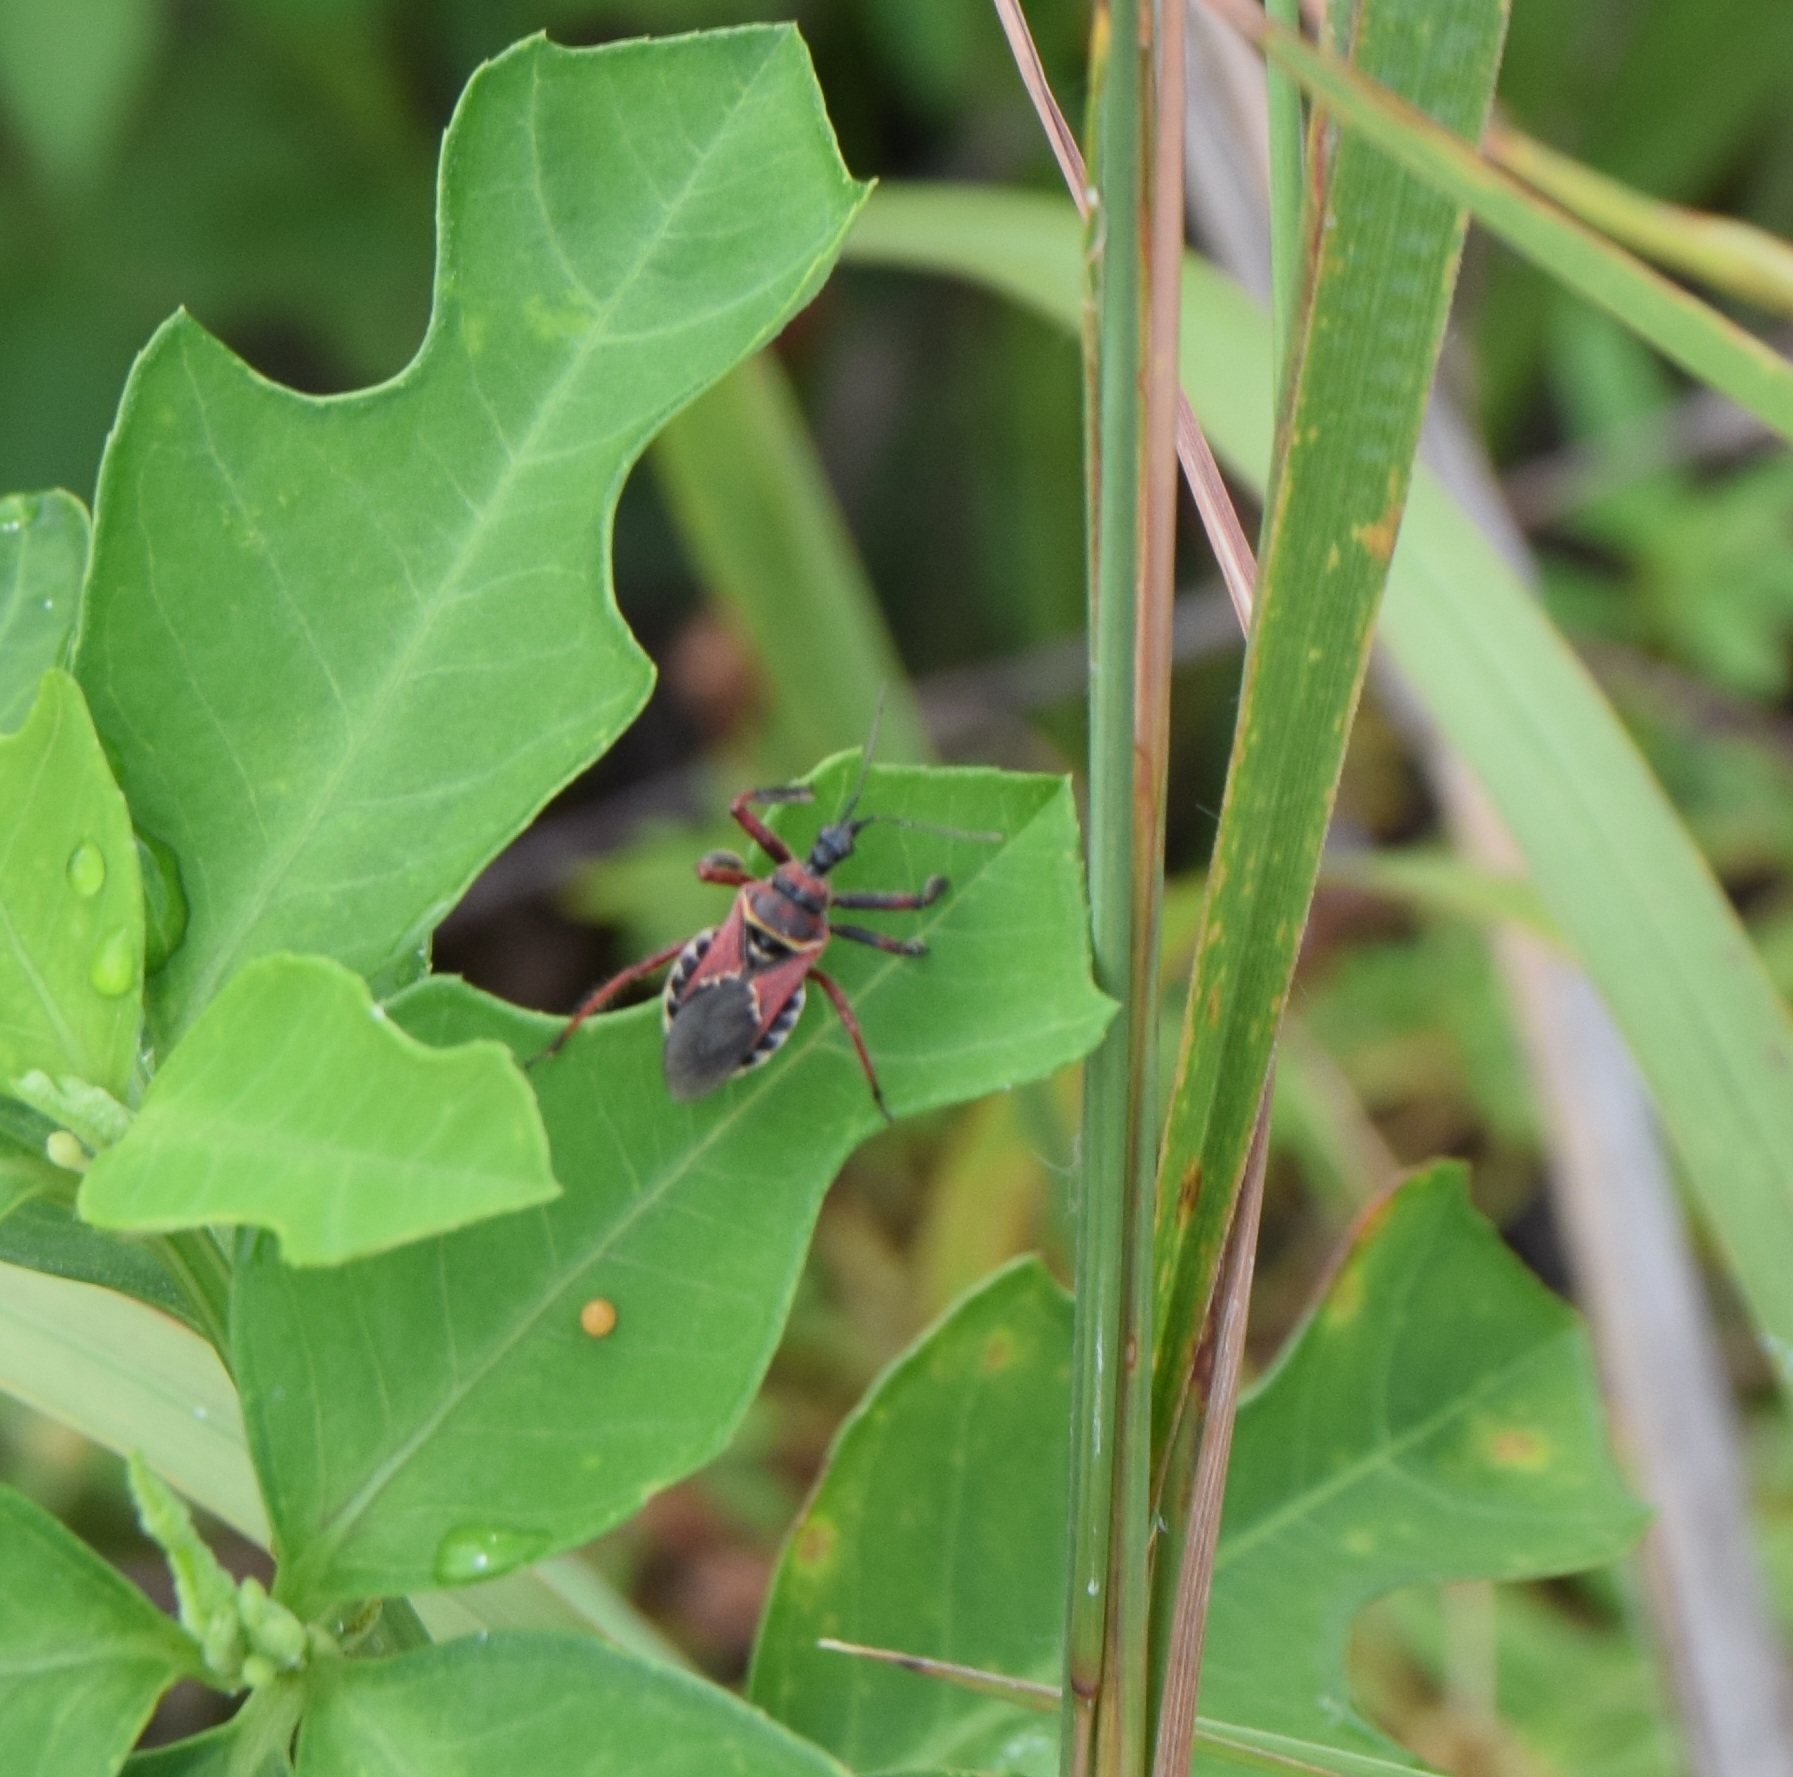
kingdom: Animalia
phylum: Arthropoda
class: Insecta
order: Hemiptera
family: Reduviidae
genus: Apiomerus
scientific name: Apiomerus floridensis
